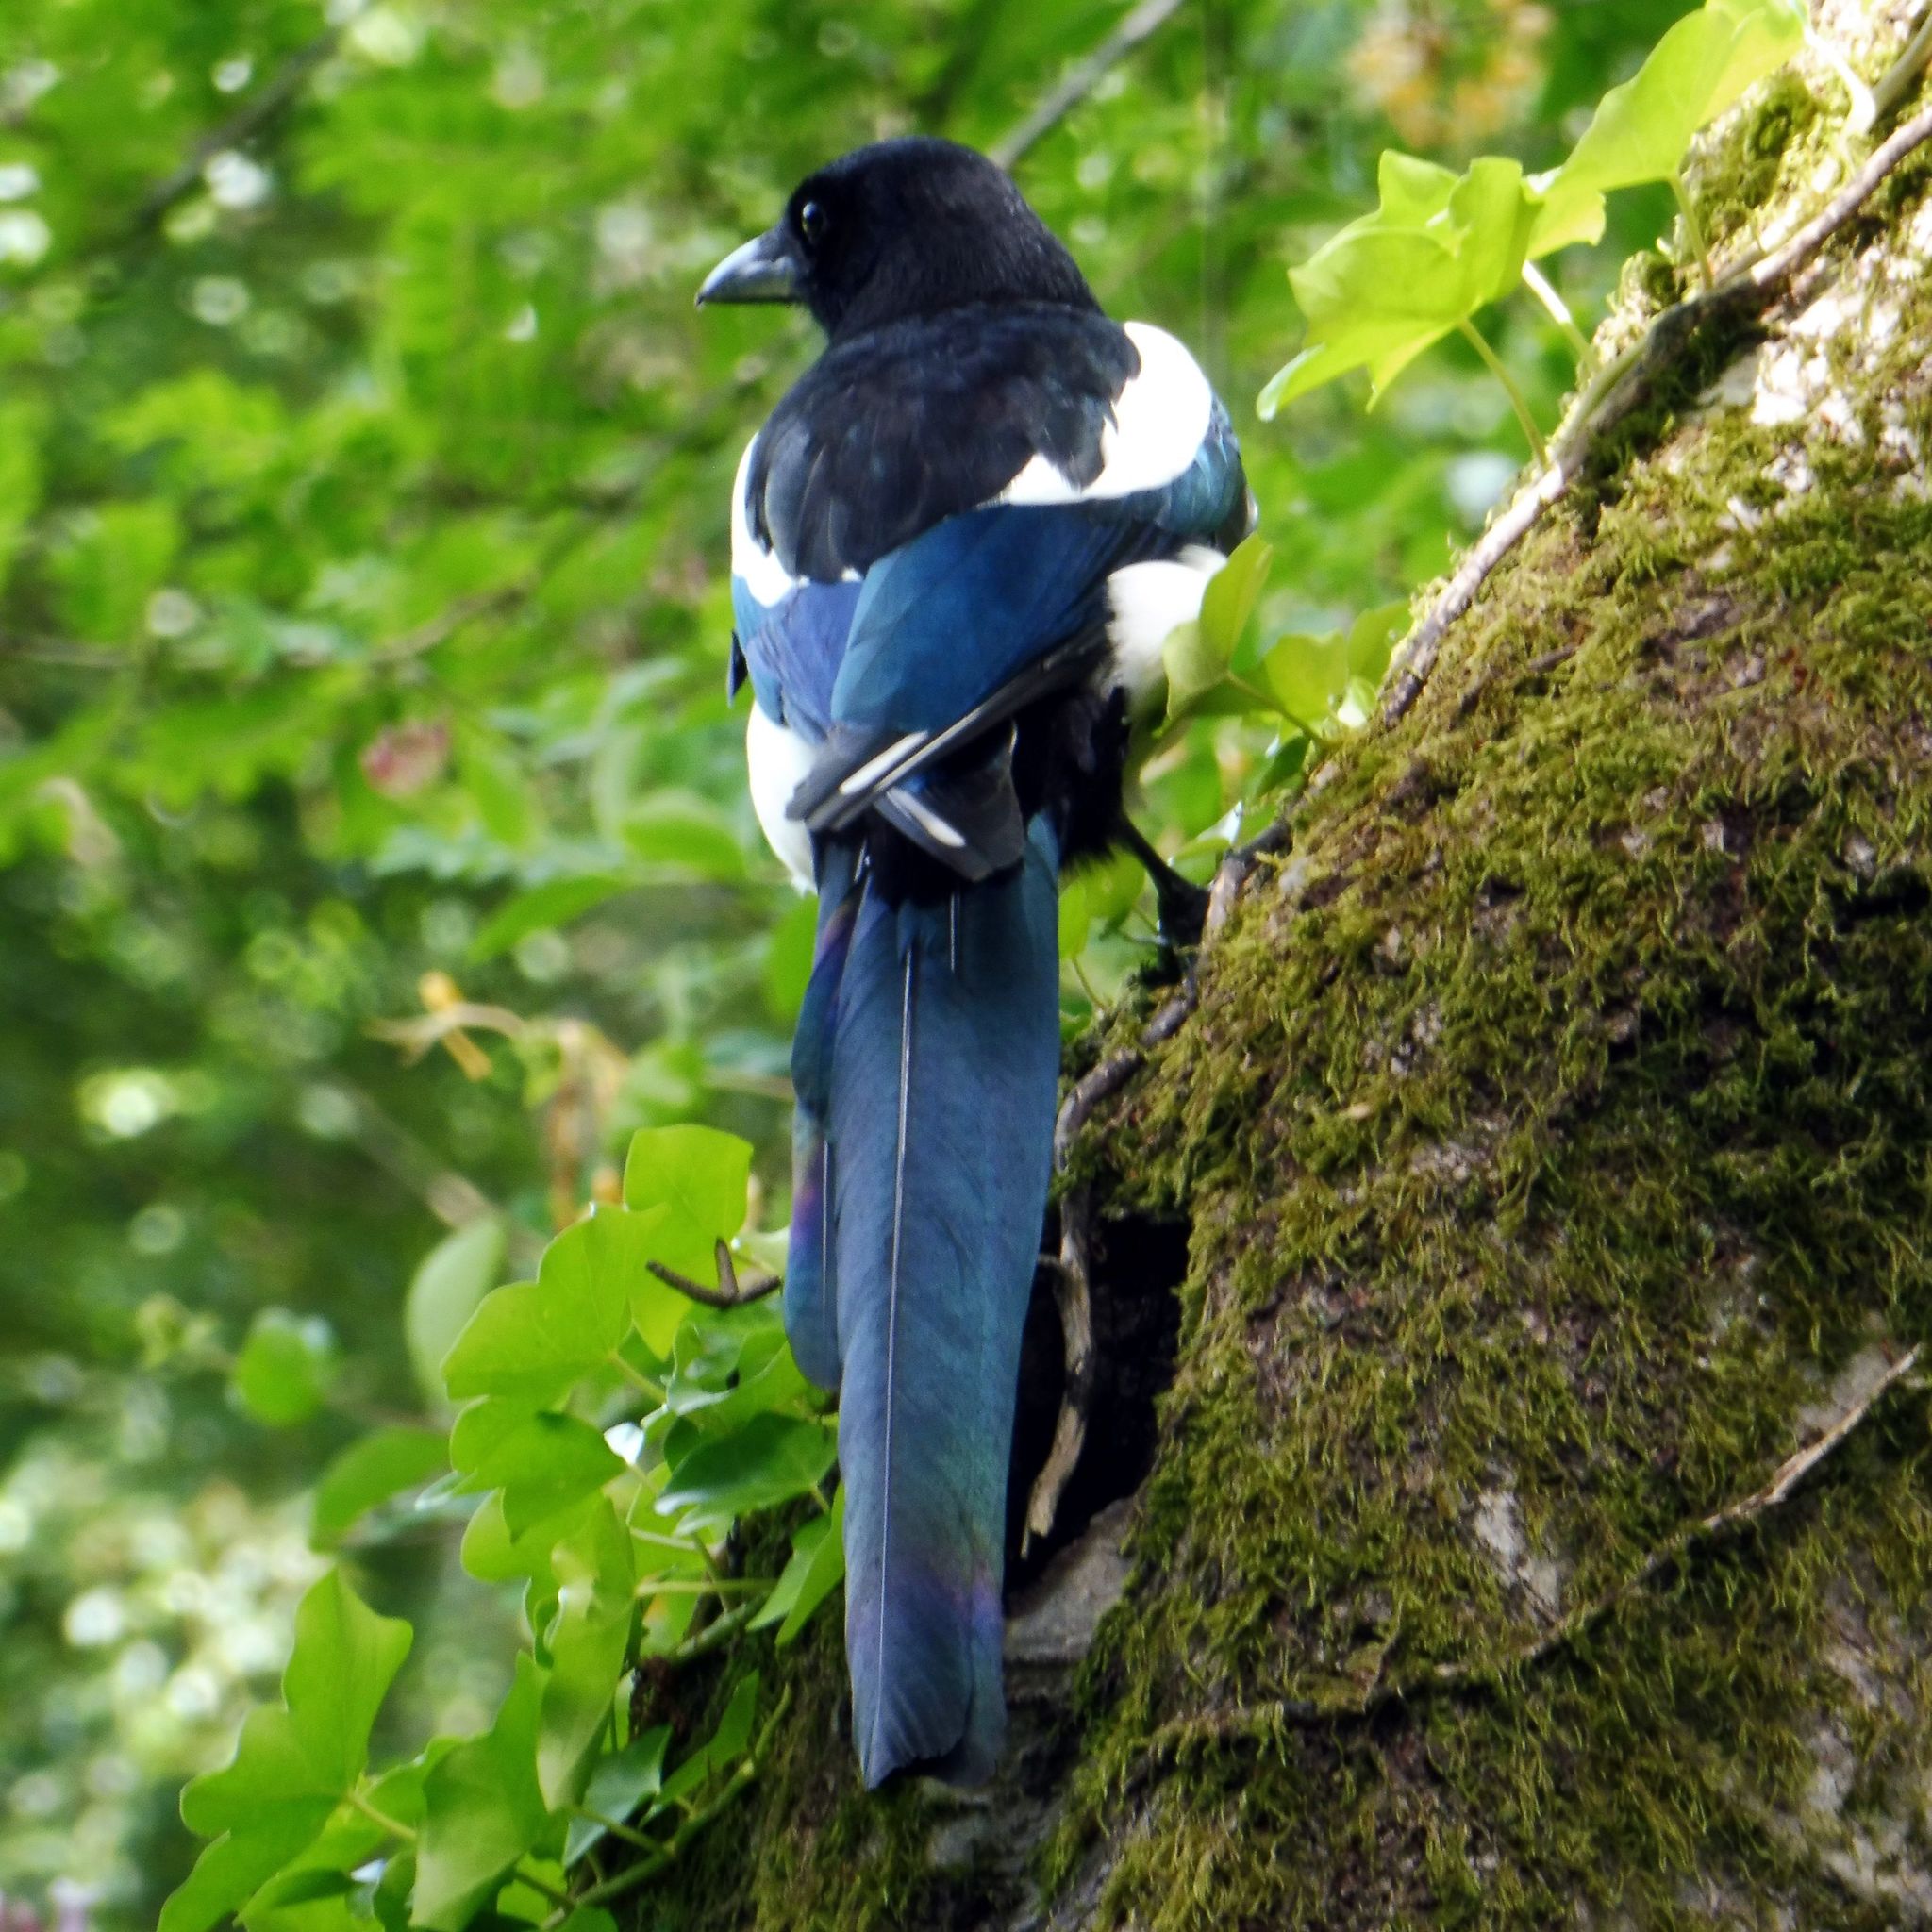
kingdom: Animalia
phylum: Chordata
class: Aves
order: Passeriformes
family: Corvidae
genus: Pica
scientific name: Pica pica
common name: Eurasian magpie
